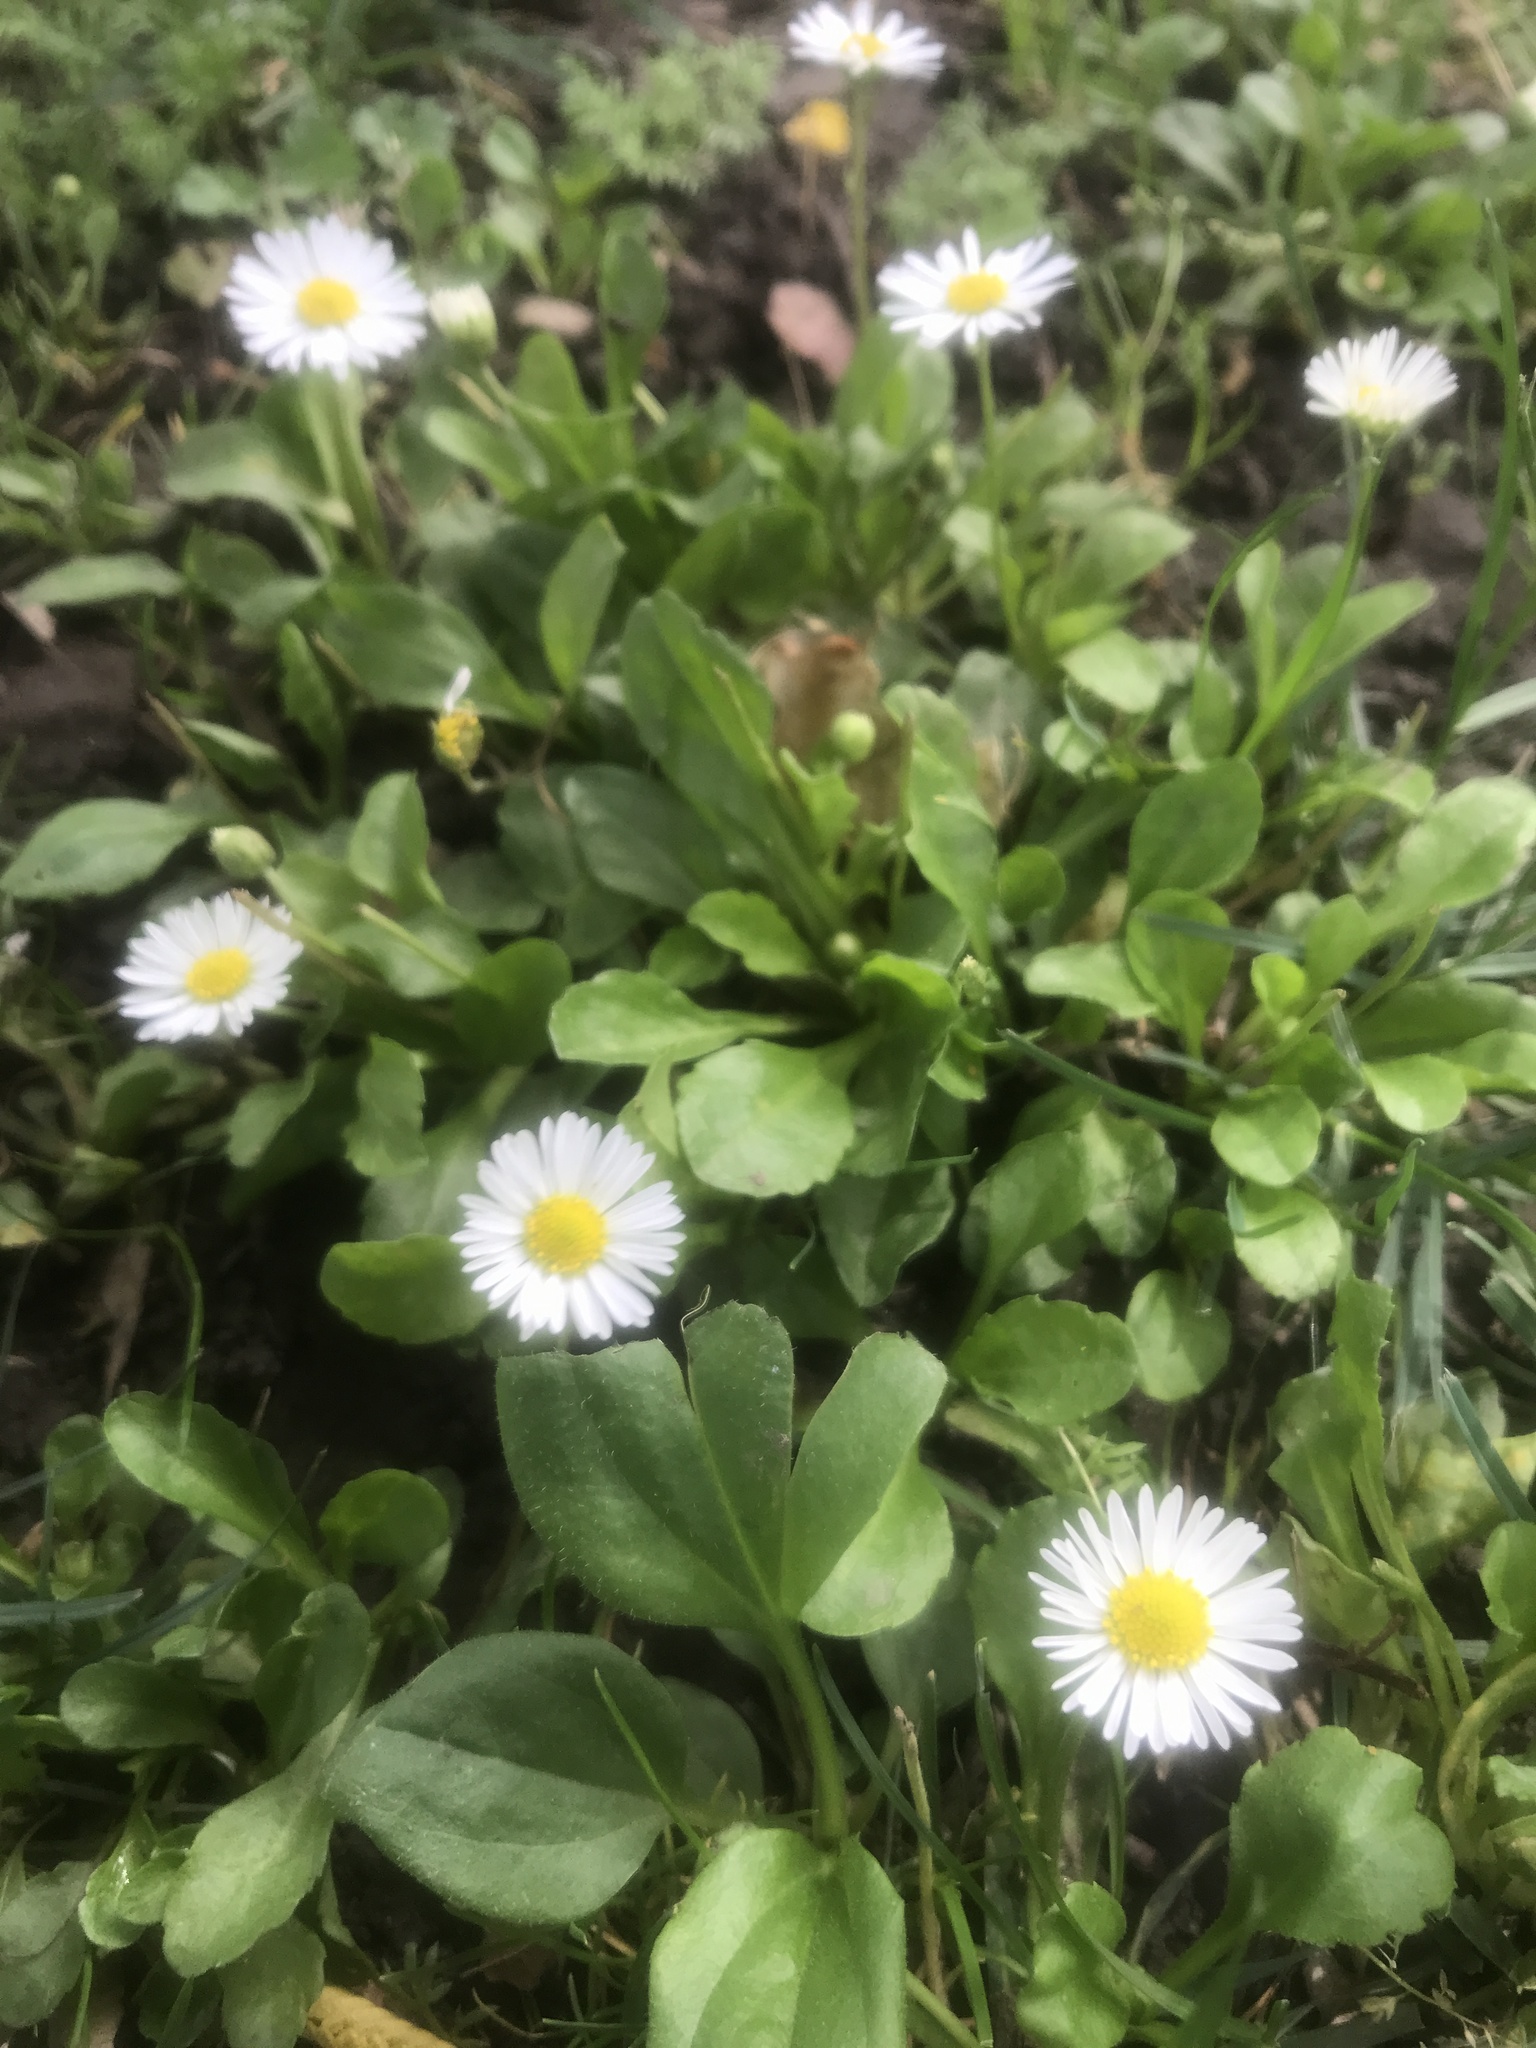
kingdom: Plantae
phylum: Tracheophyta
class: Magnoliopsida
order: Asterales
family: Asteraceae
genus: Bellis
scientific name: Bellis perennis
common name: Lawndaisy
